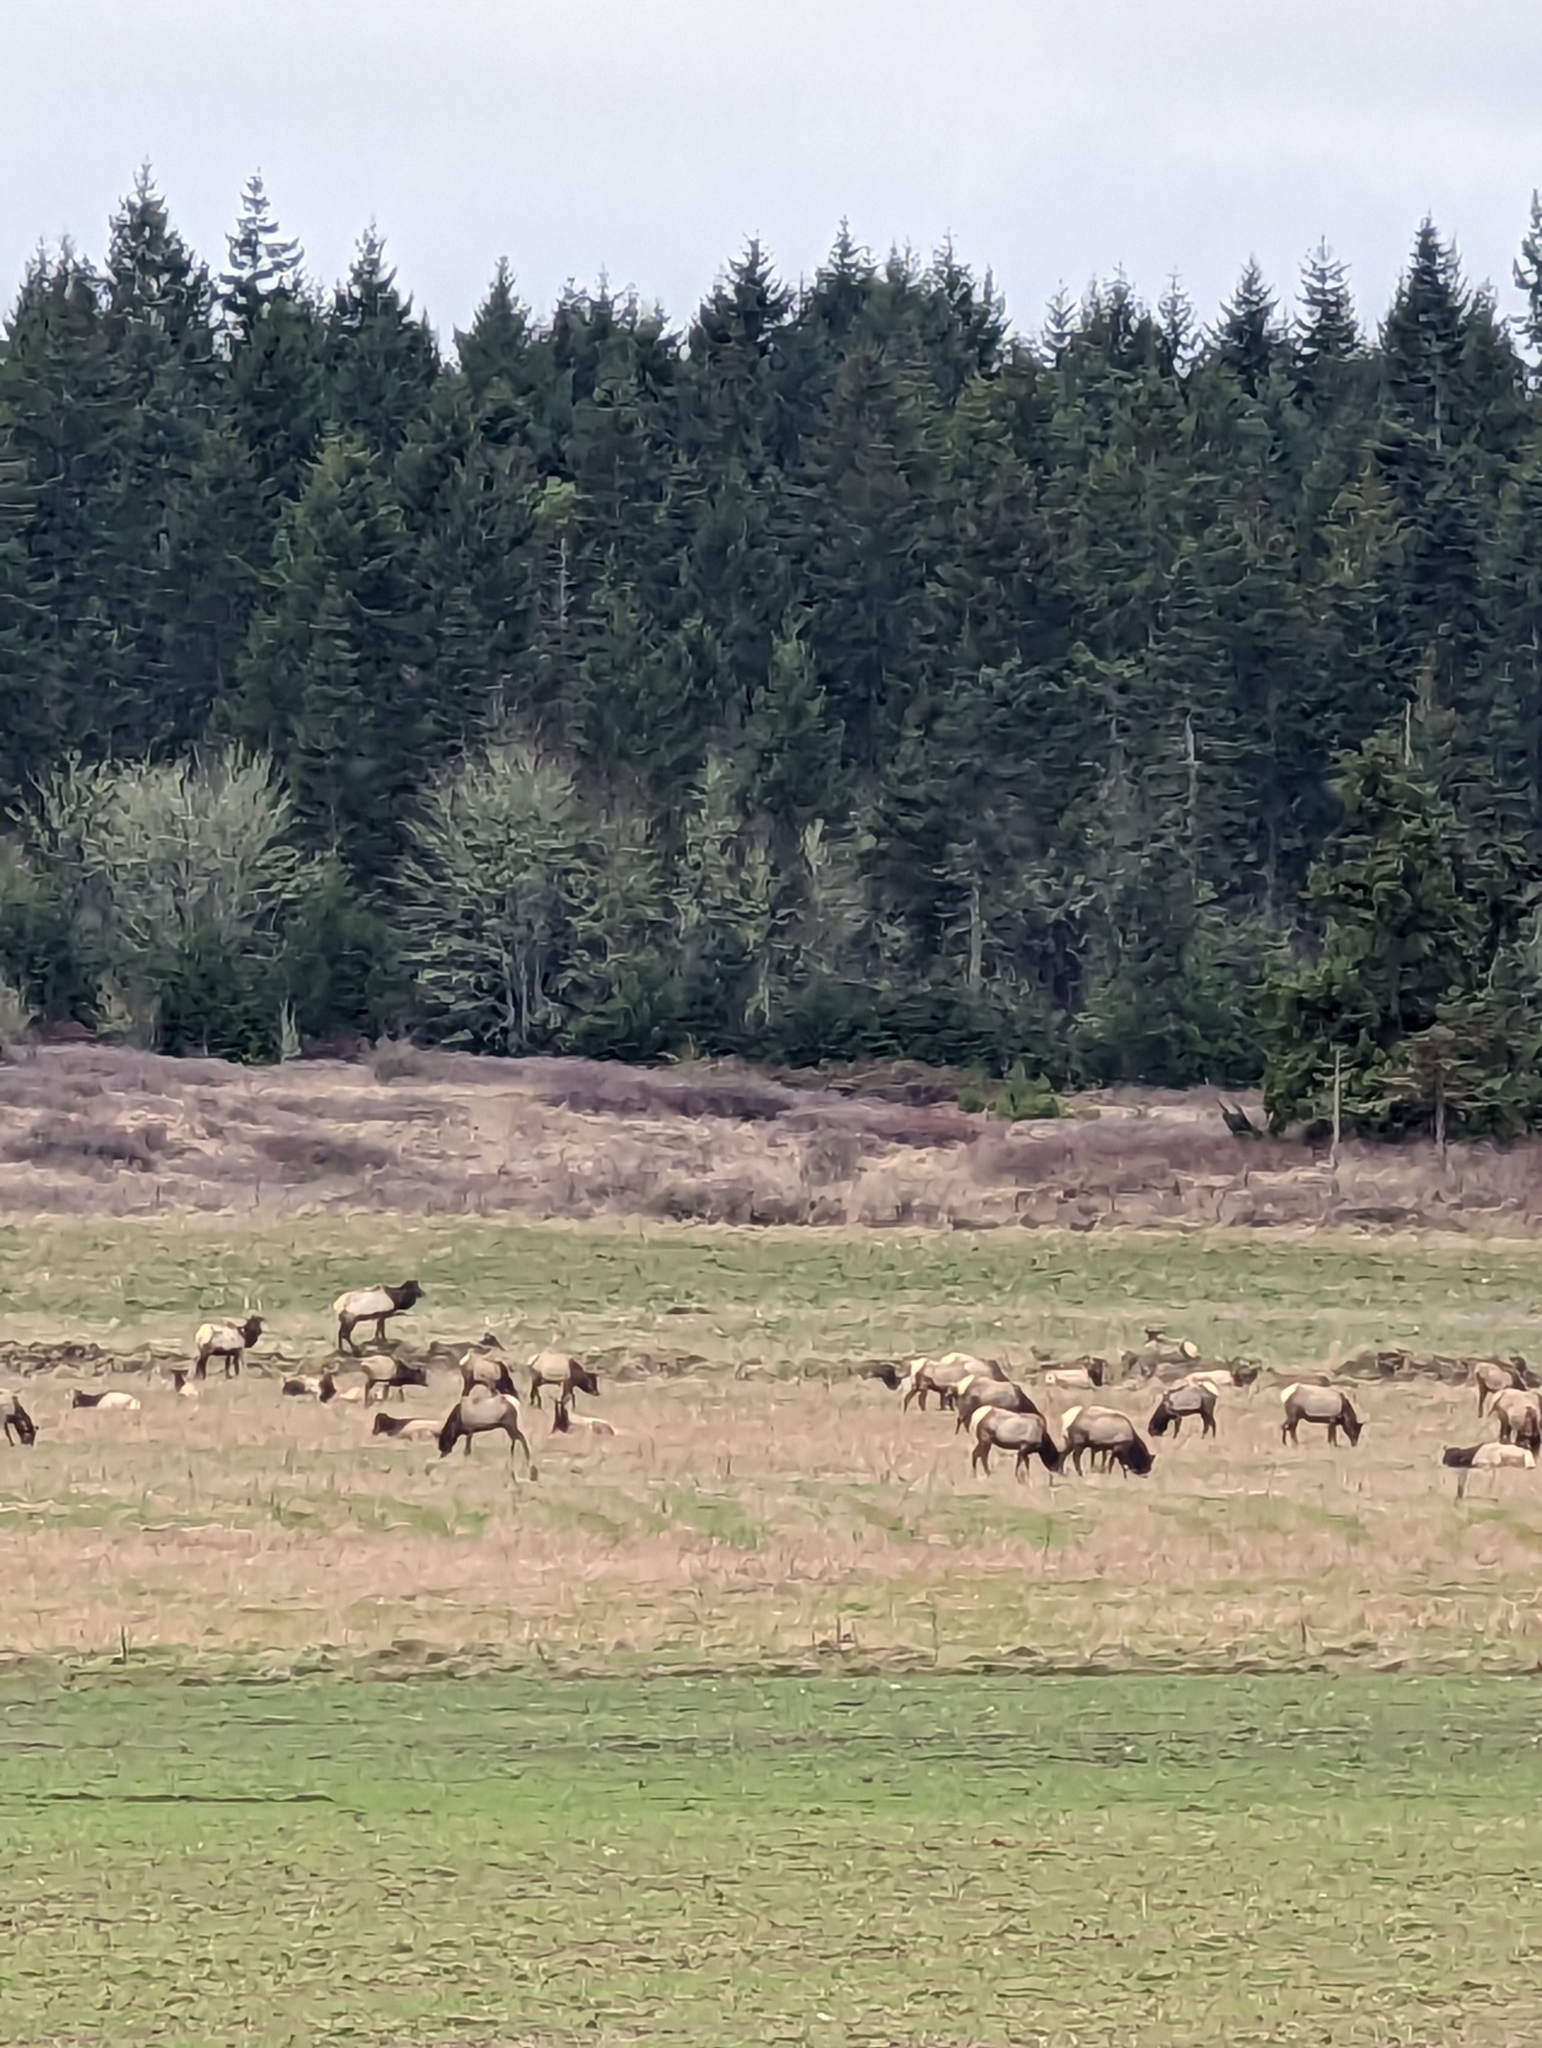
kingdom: Animalia
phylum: Chordata
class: Mammalia
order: Artiodactyla
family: Cervidae
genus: Cervus
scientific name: Cervus elaphus
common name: Red deer
